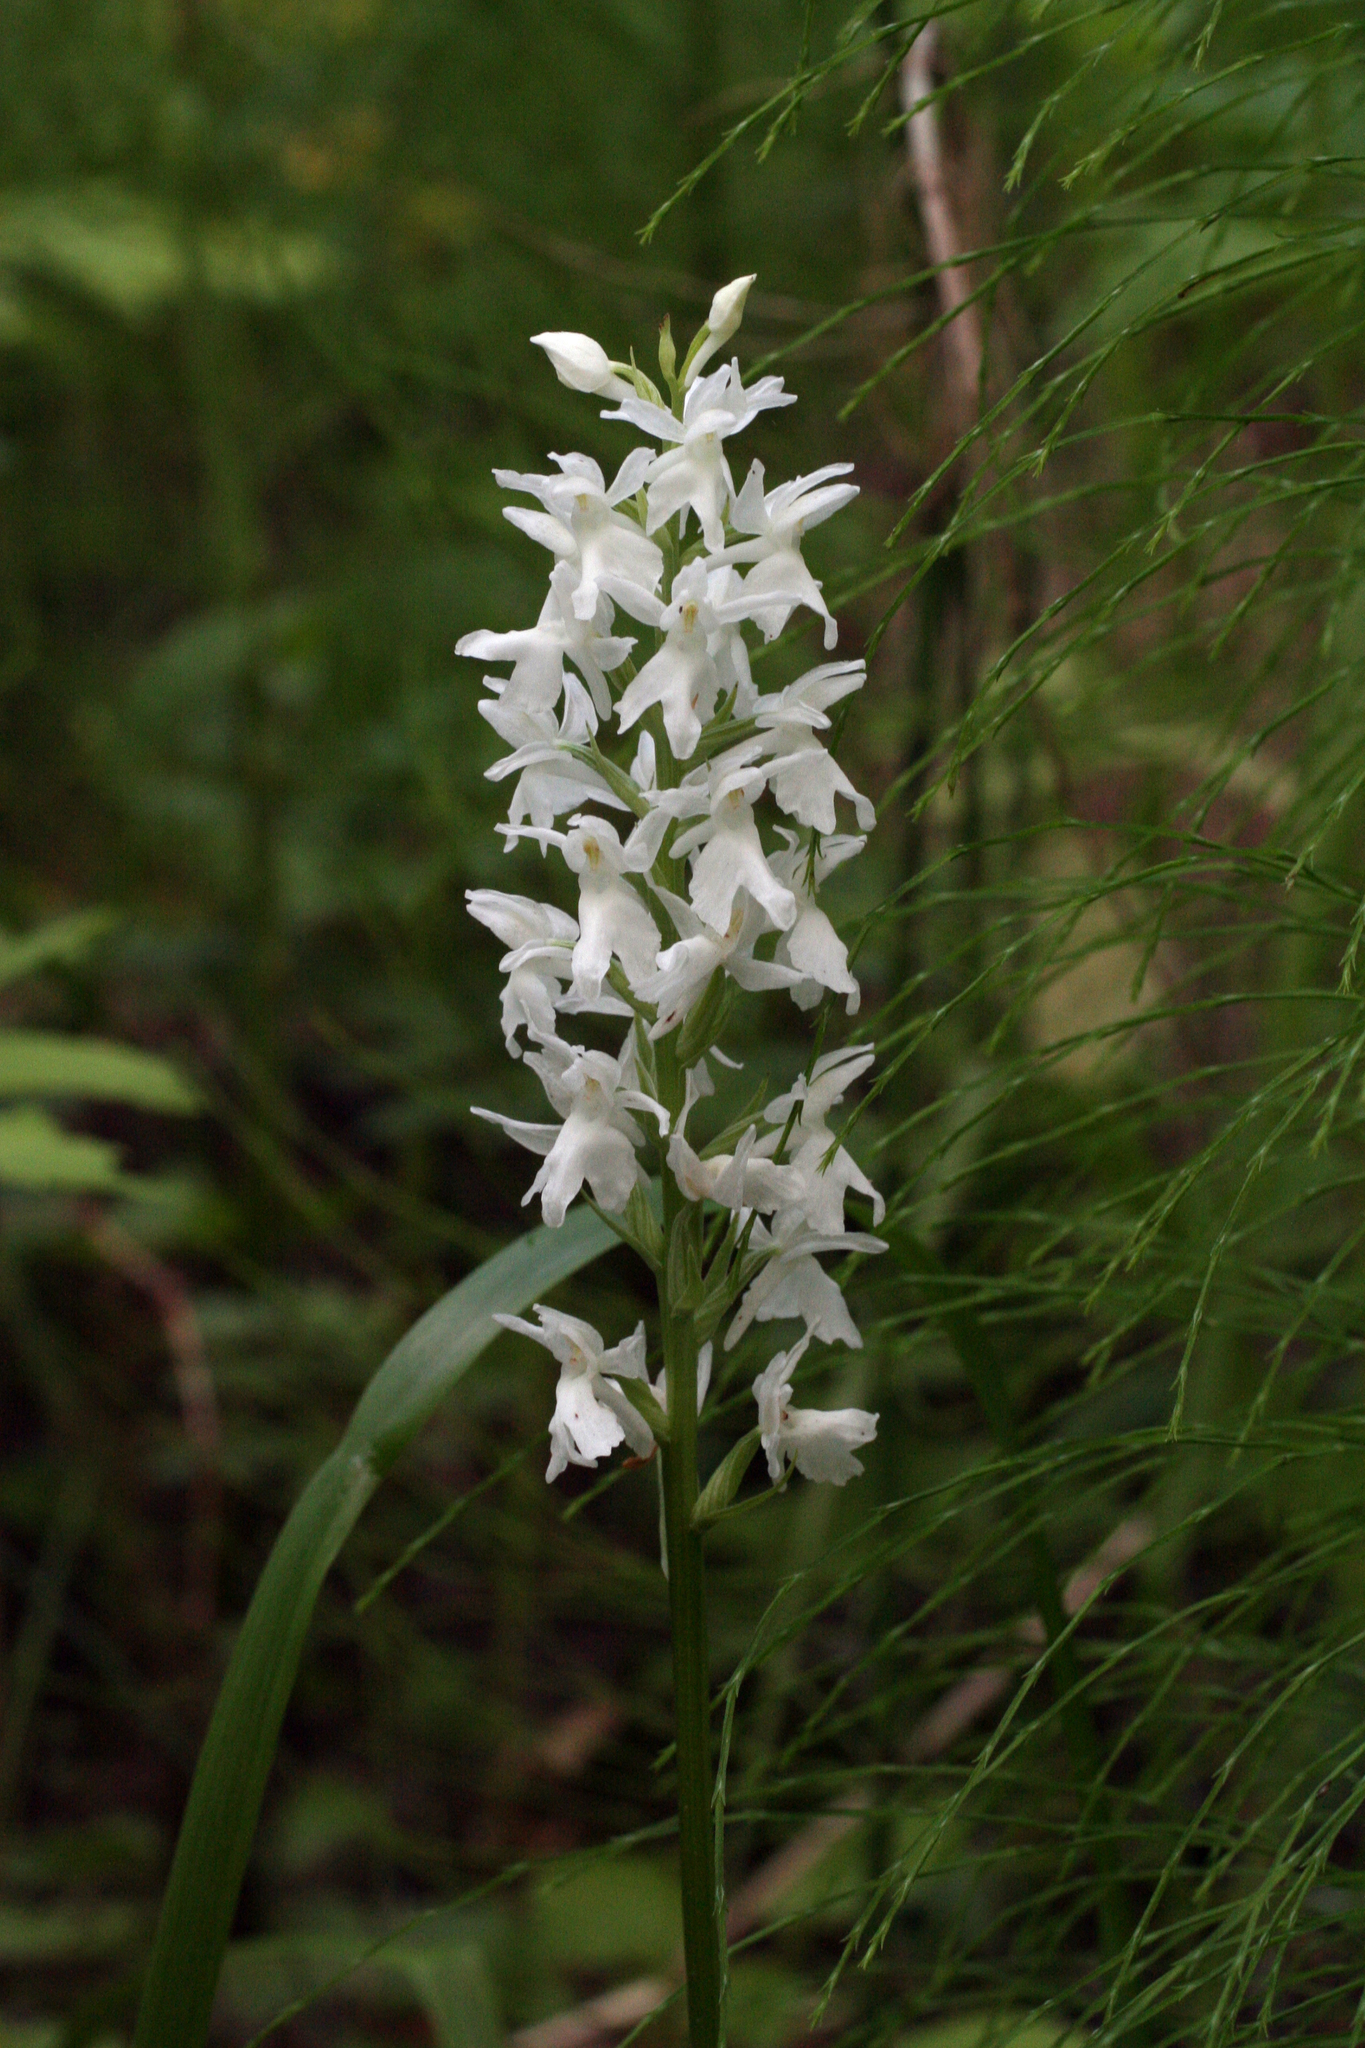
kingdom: Plantae
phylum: Tracheophyta
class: Liliopsida
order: Asparagales
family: Orchidaceae
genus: Dactylorhiza
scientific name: Dactylorhiza maculata
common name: Heath spotted-orchid
